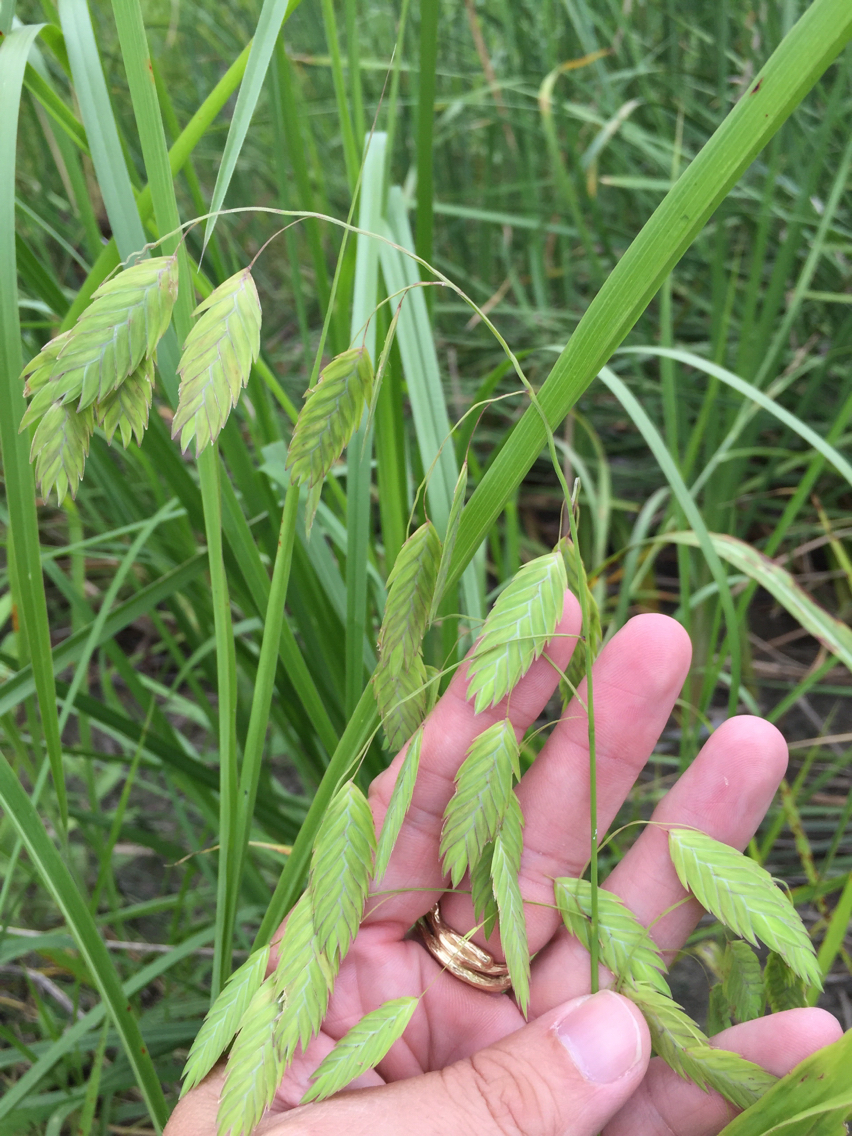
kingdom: Plantae
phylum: Tracheophyta
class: Liliopsida
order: Poales
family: Poaceae
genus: Chasmanthium
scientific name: Chasmanthium latifolium
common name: Broad-leaved chasmanthium
